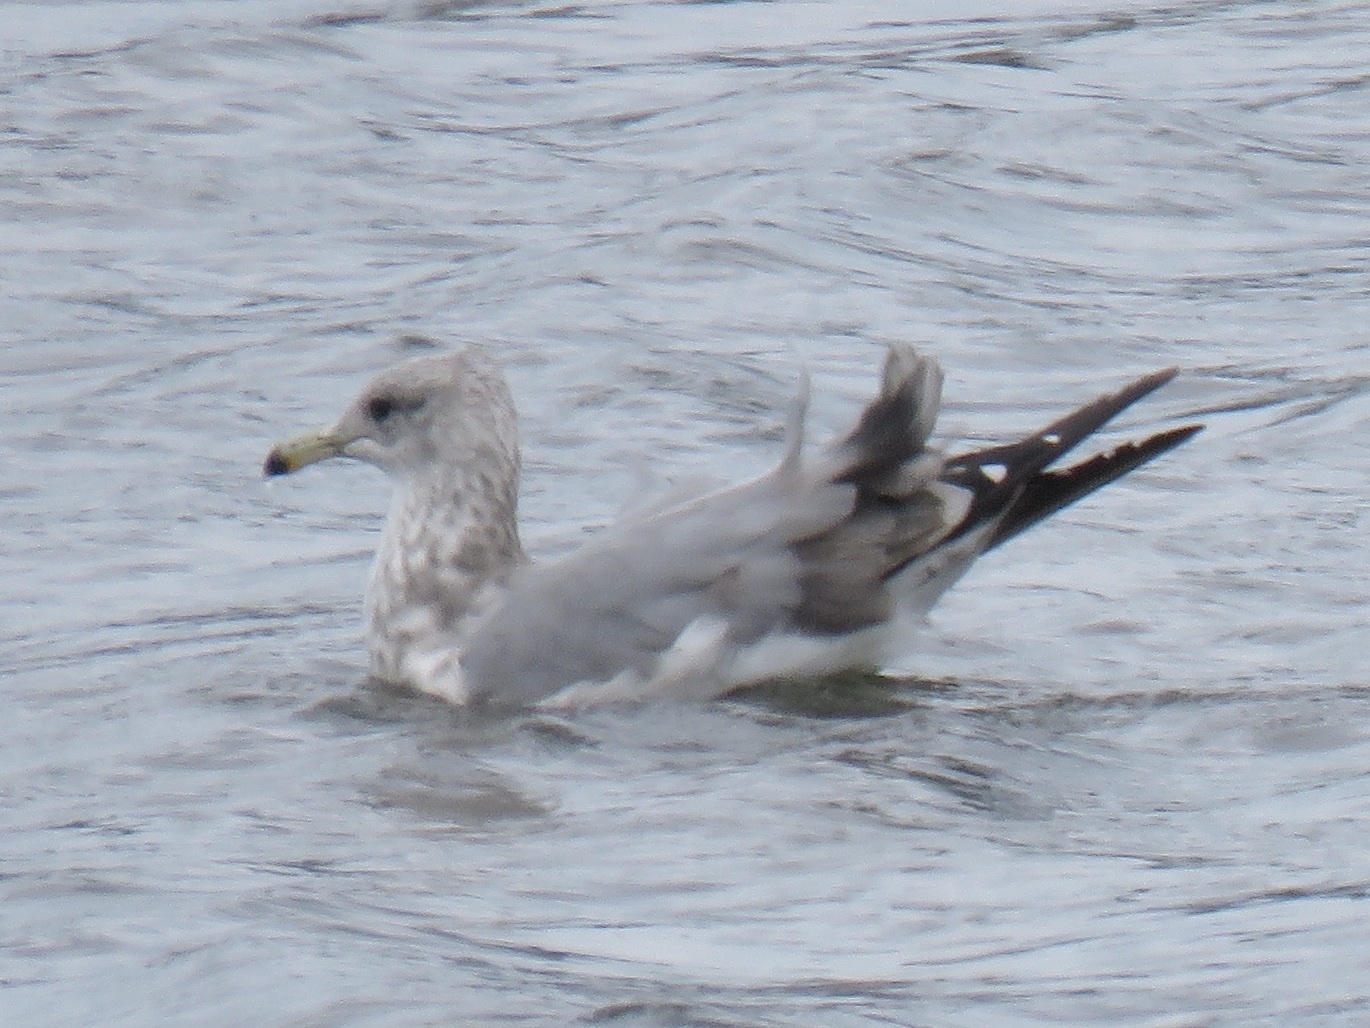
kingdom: Animalia
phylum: Chordata
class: Aves
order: Charadriiformes
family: Laridae
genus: Larus
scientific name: Larus californicus
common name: California gull
